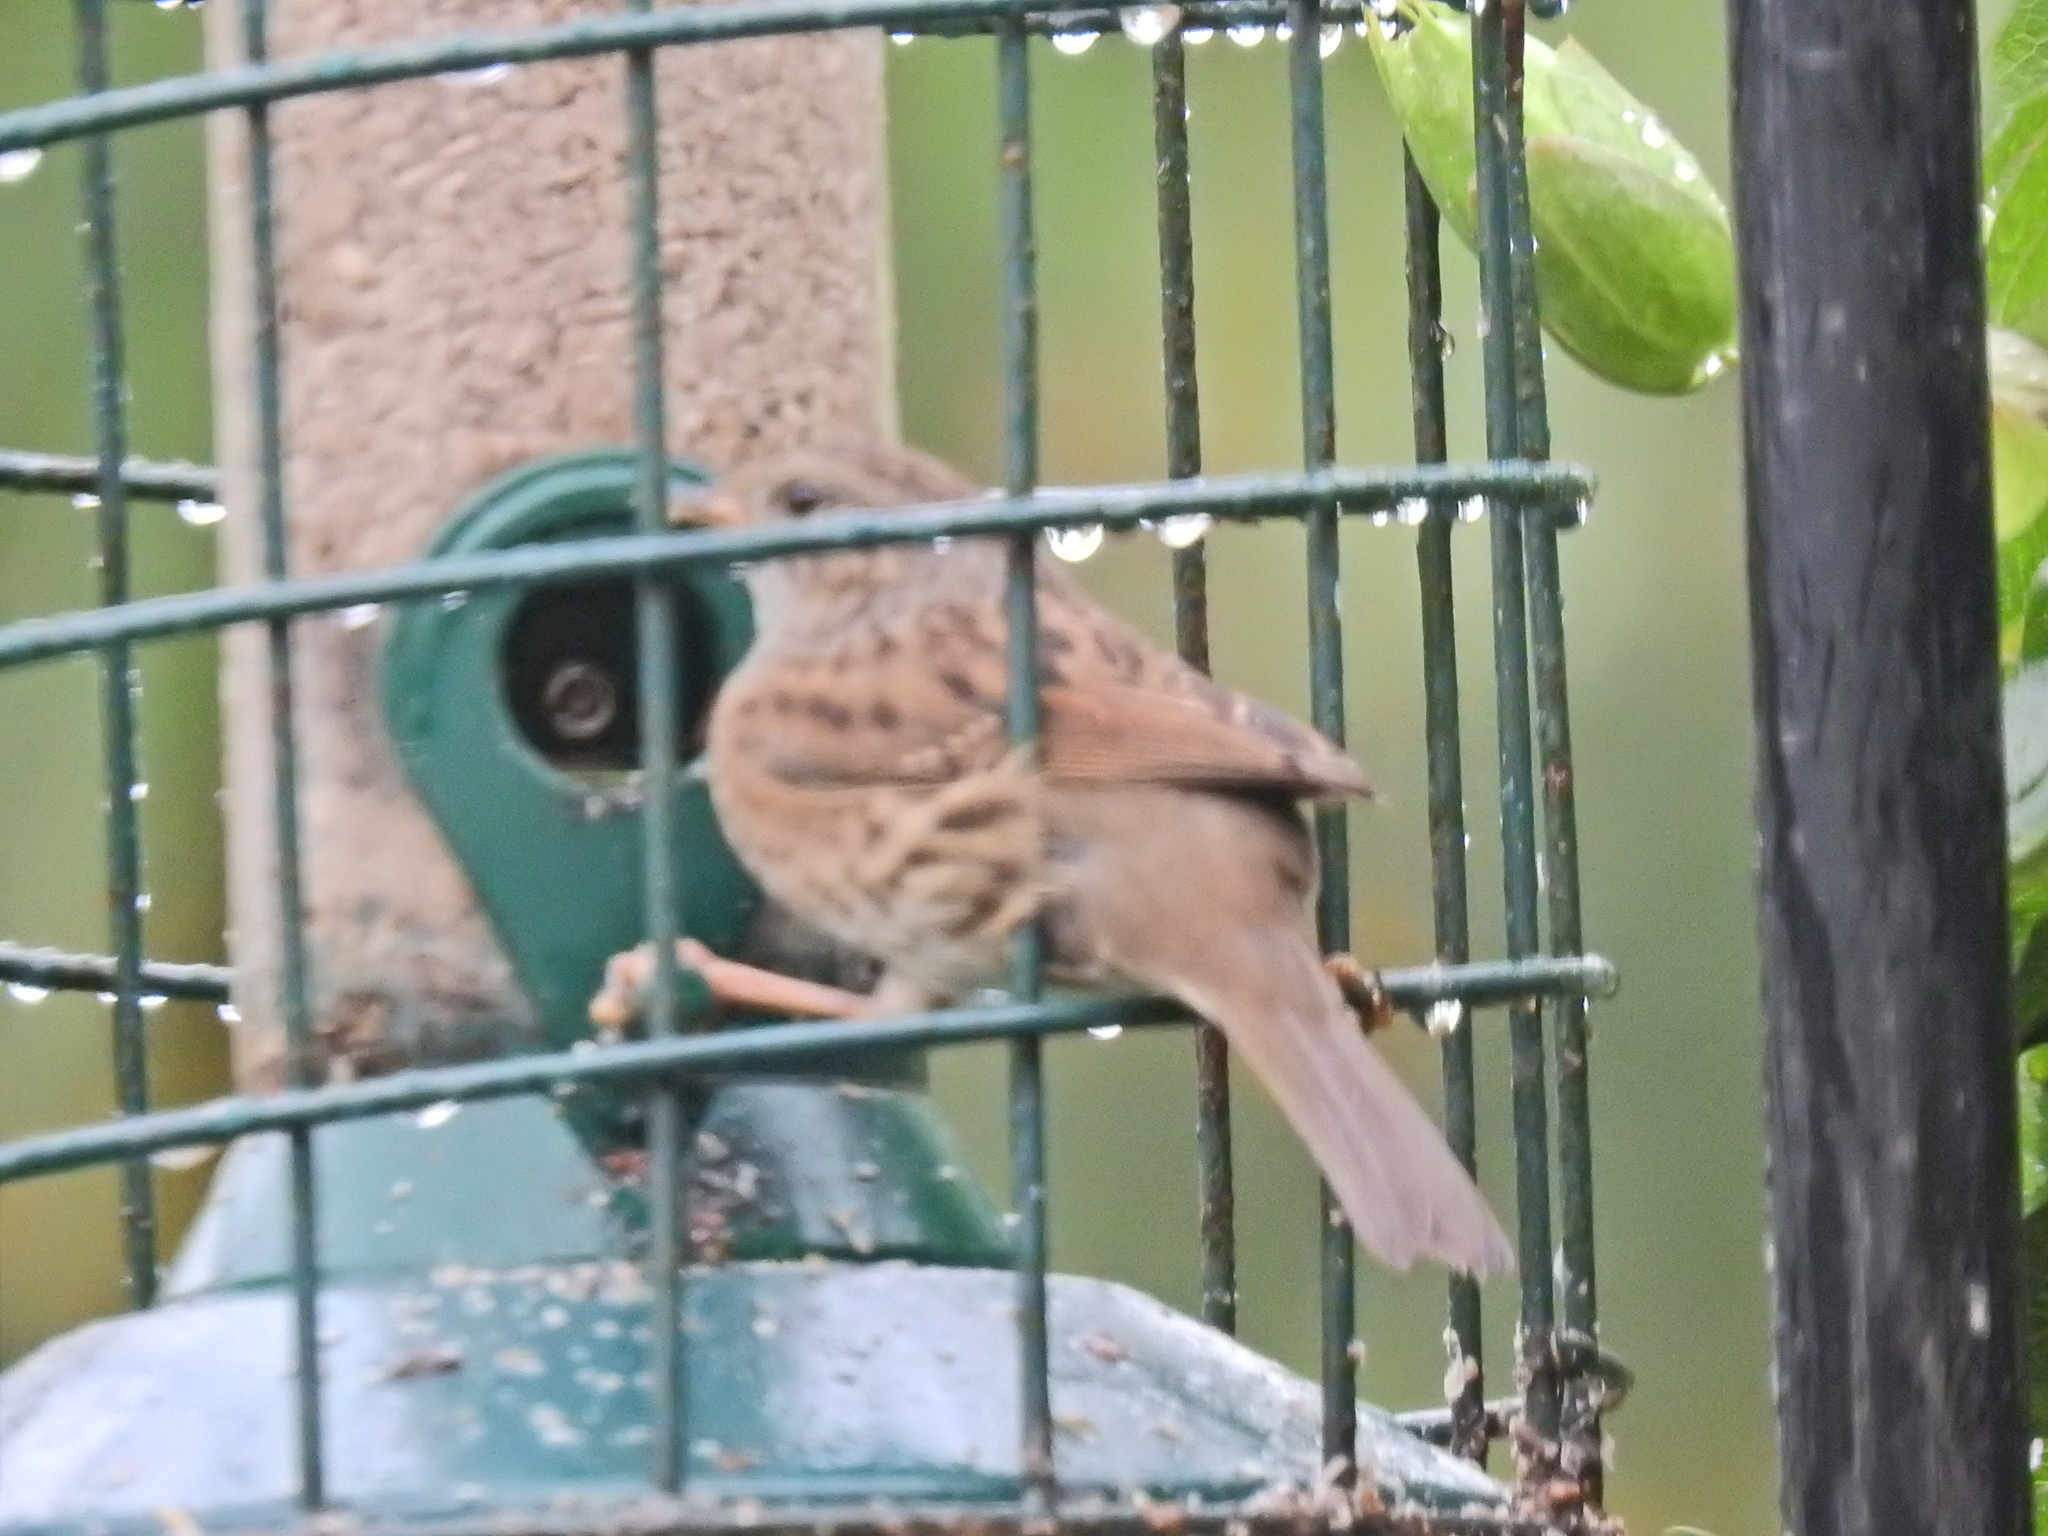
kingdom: Animalia
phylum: Chordata
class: Aves
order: Passeriformes
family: Prunellidae
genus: Prunella
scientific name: Prunella modularis
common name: Dunnock
